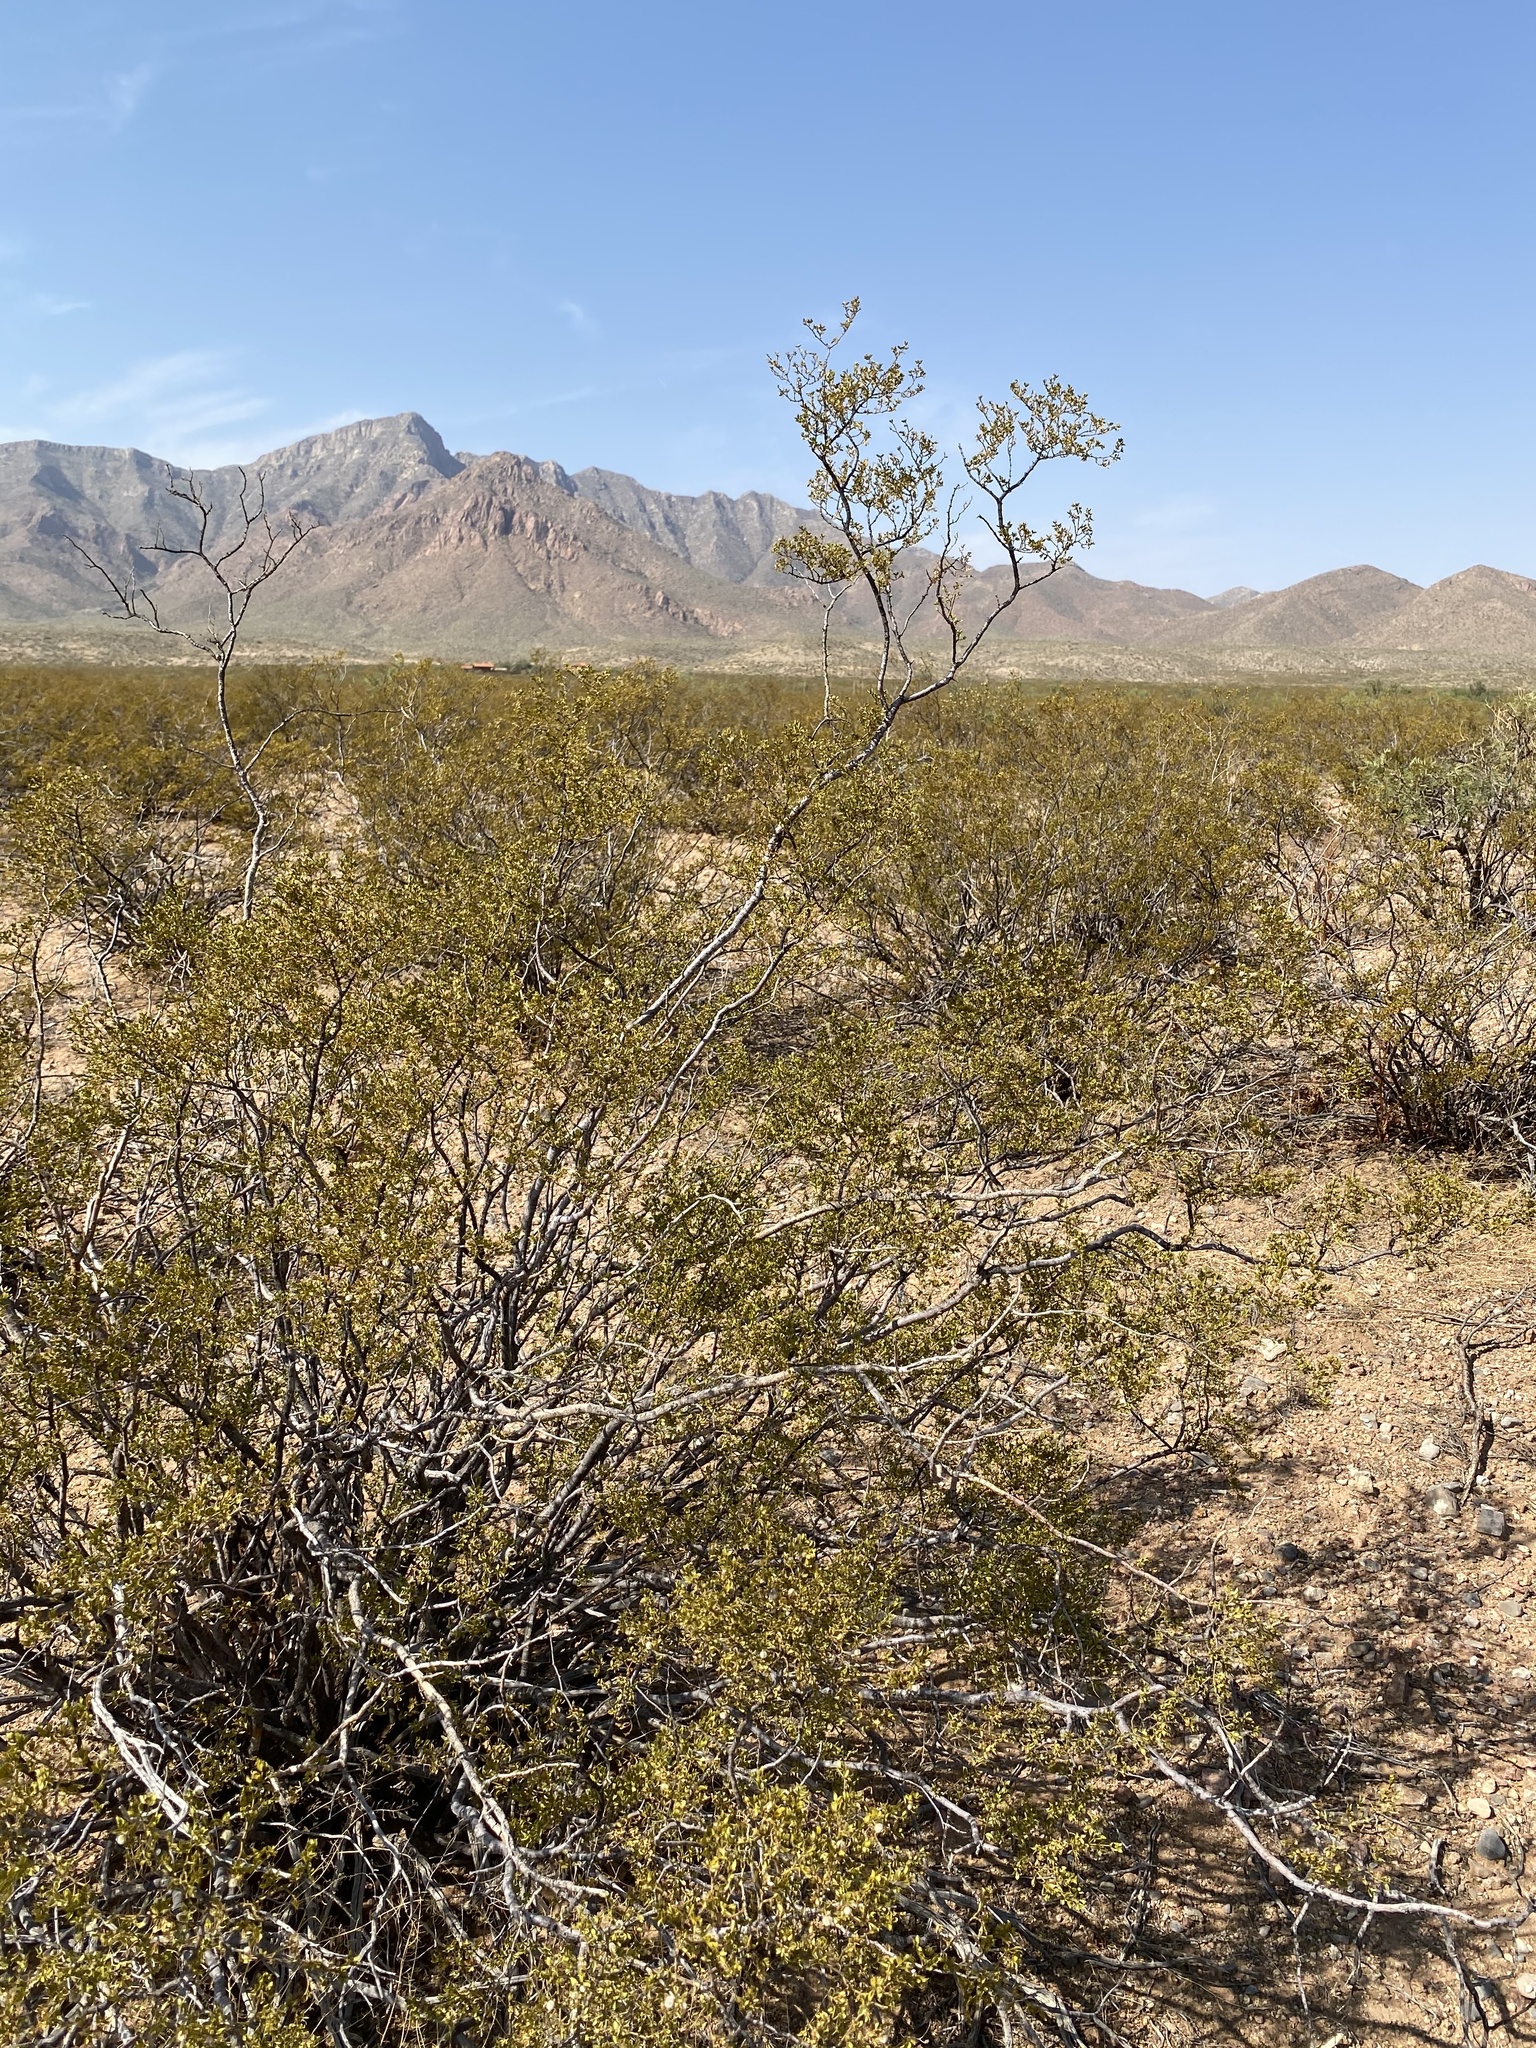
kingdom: Plantae
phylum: Tracheophyta
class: Magnoliopsida
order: Zygophyllales
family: Zygophyllaceae
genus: Larrea
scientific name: Larrea tridentata
